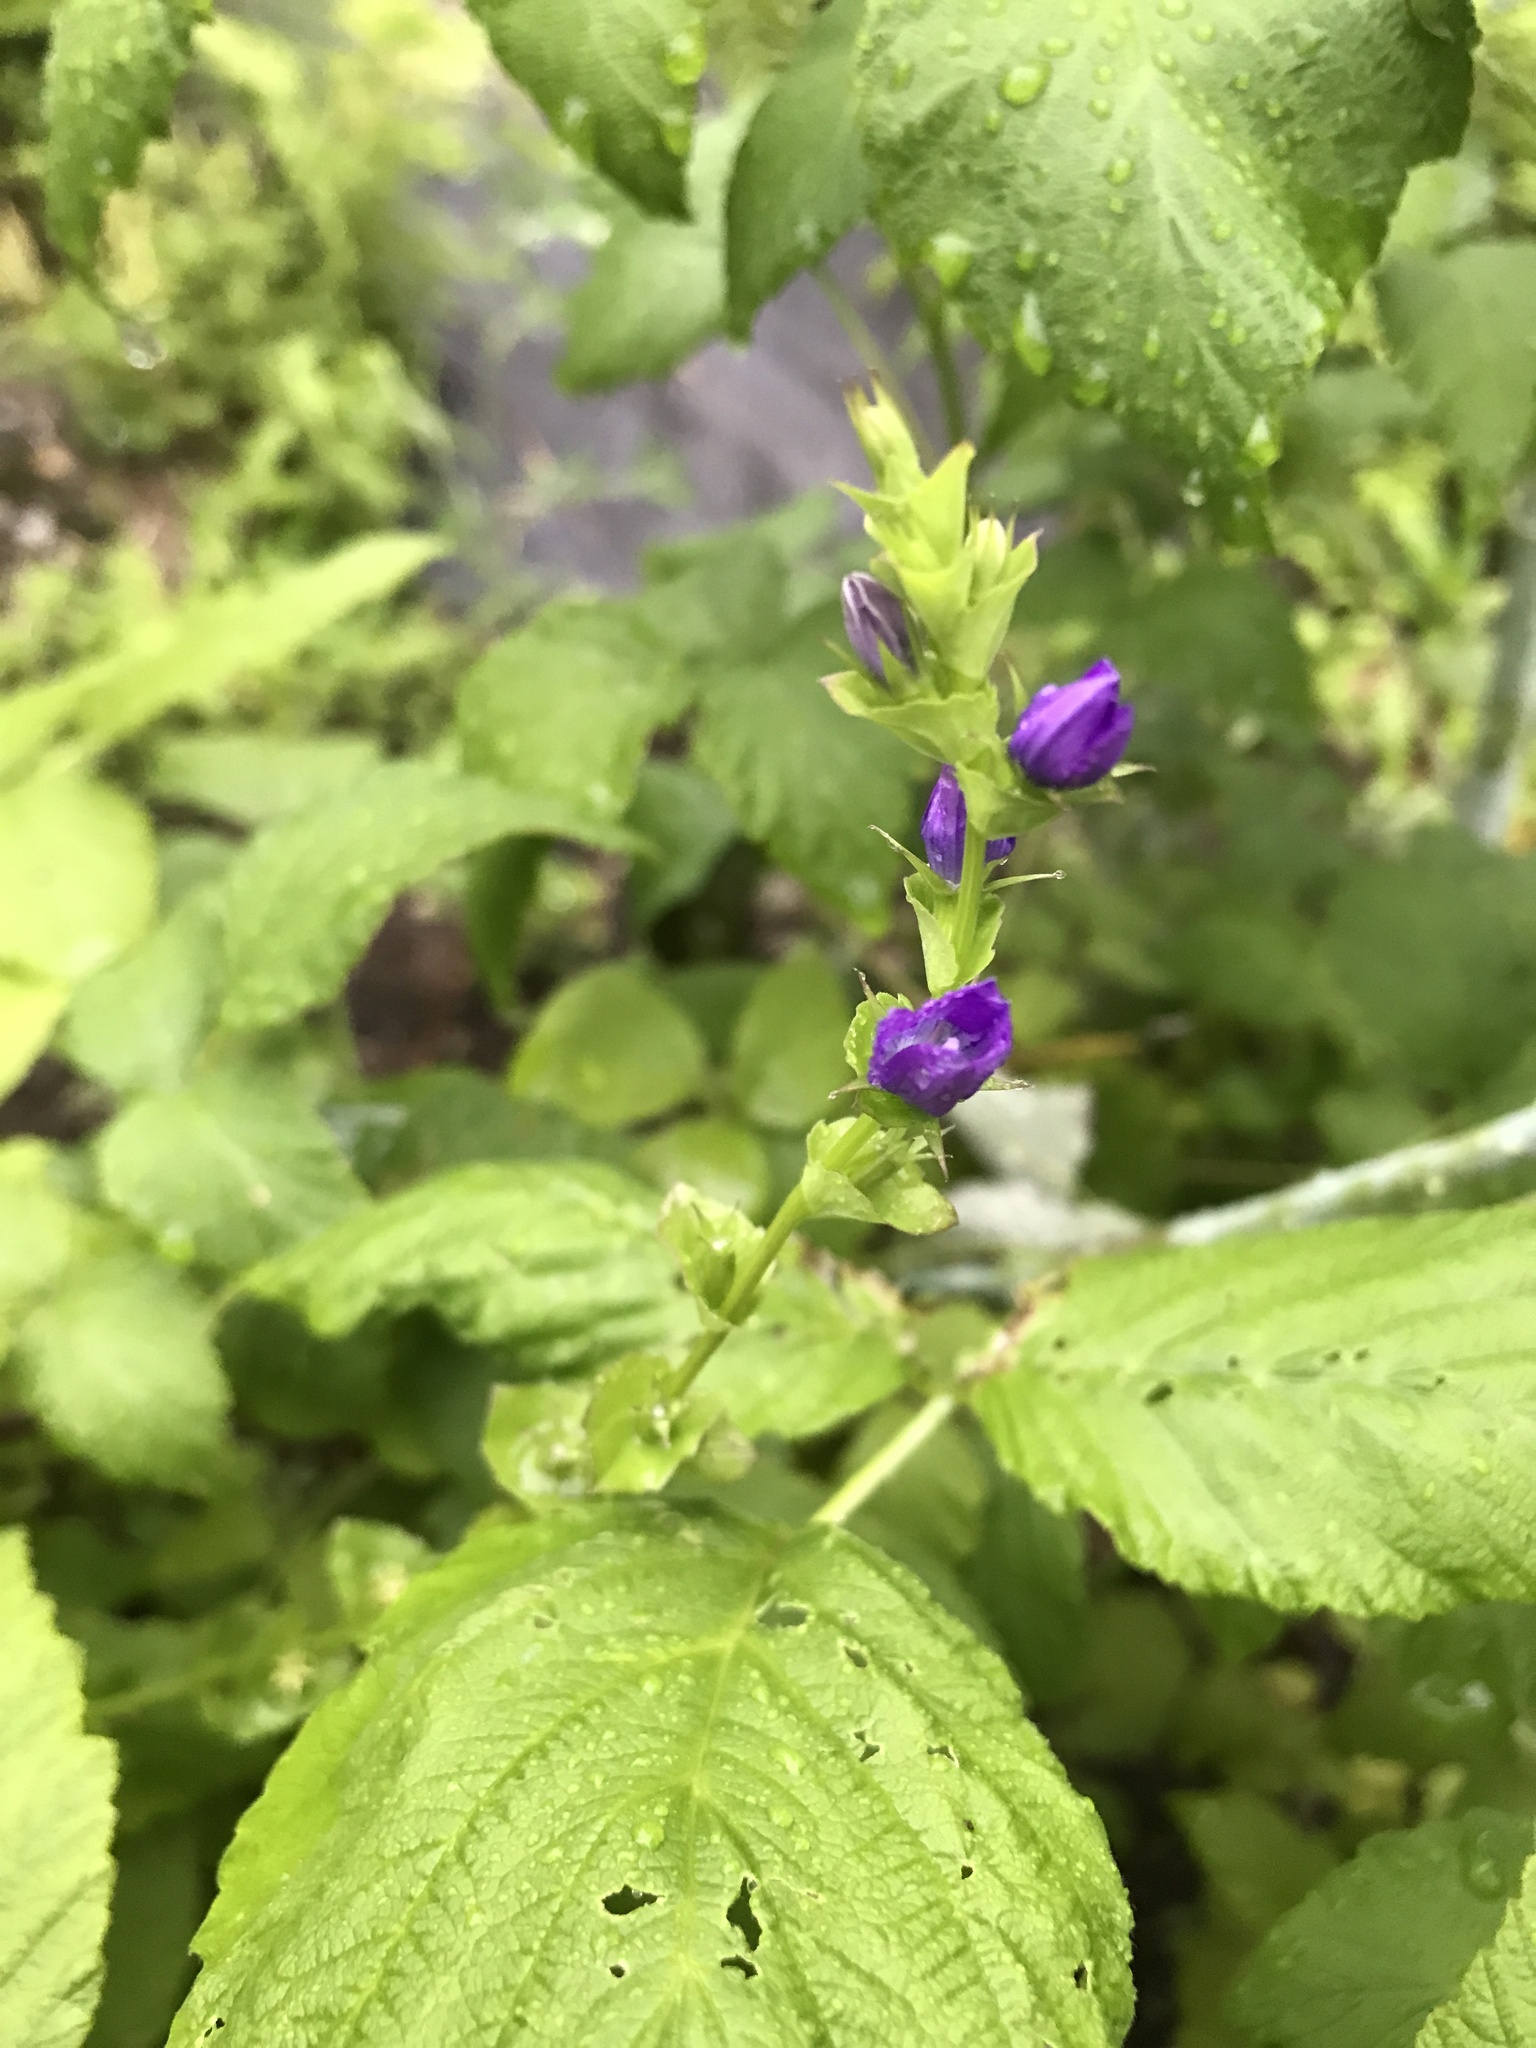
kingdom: Plantae
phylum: Tracheophyta
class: Magnoliopsida
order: Asterales
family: Campanulaceae
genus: Triodanis
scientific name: Triodanis perfoliata
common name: Clasping venus' looking-glass
